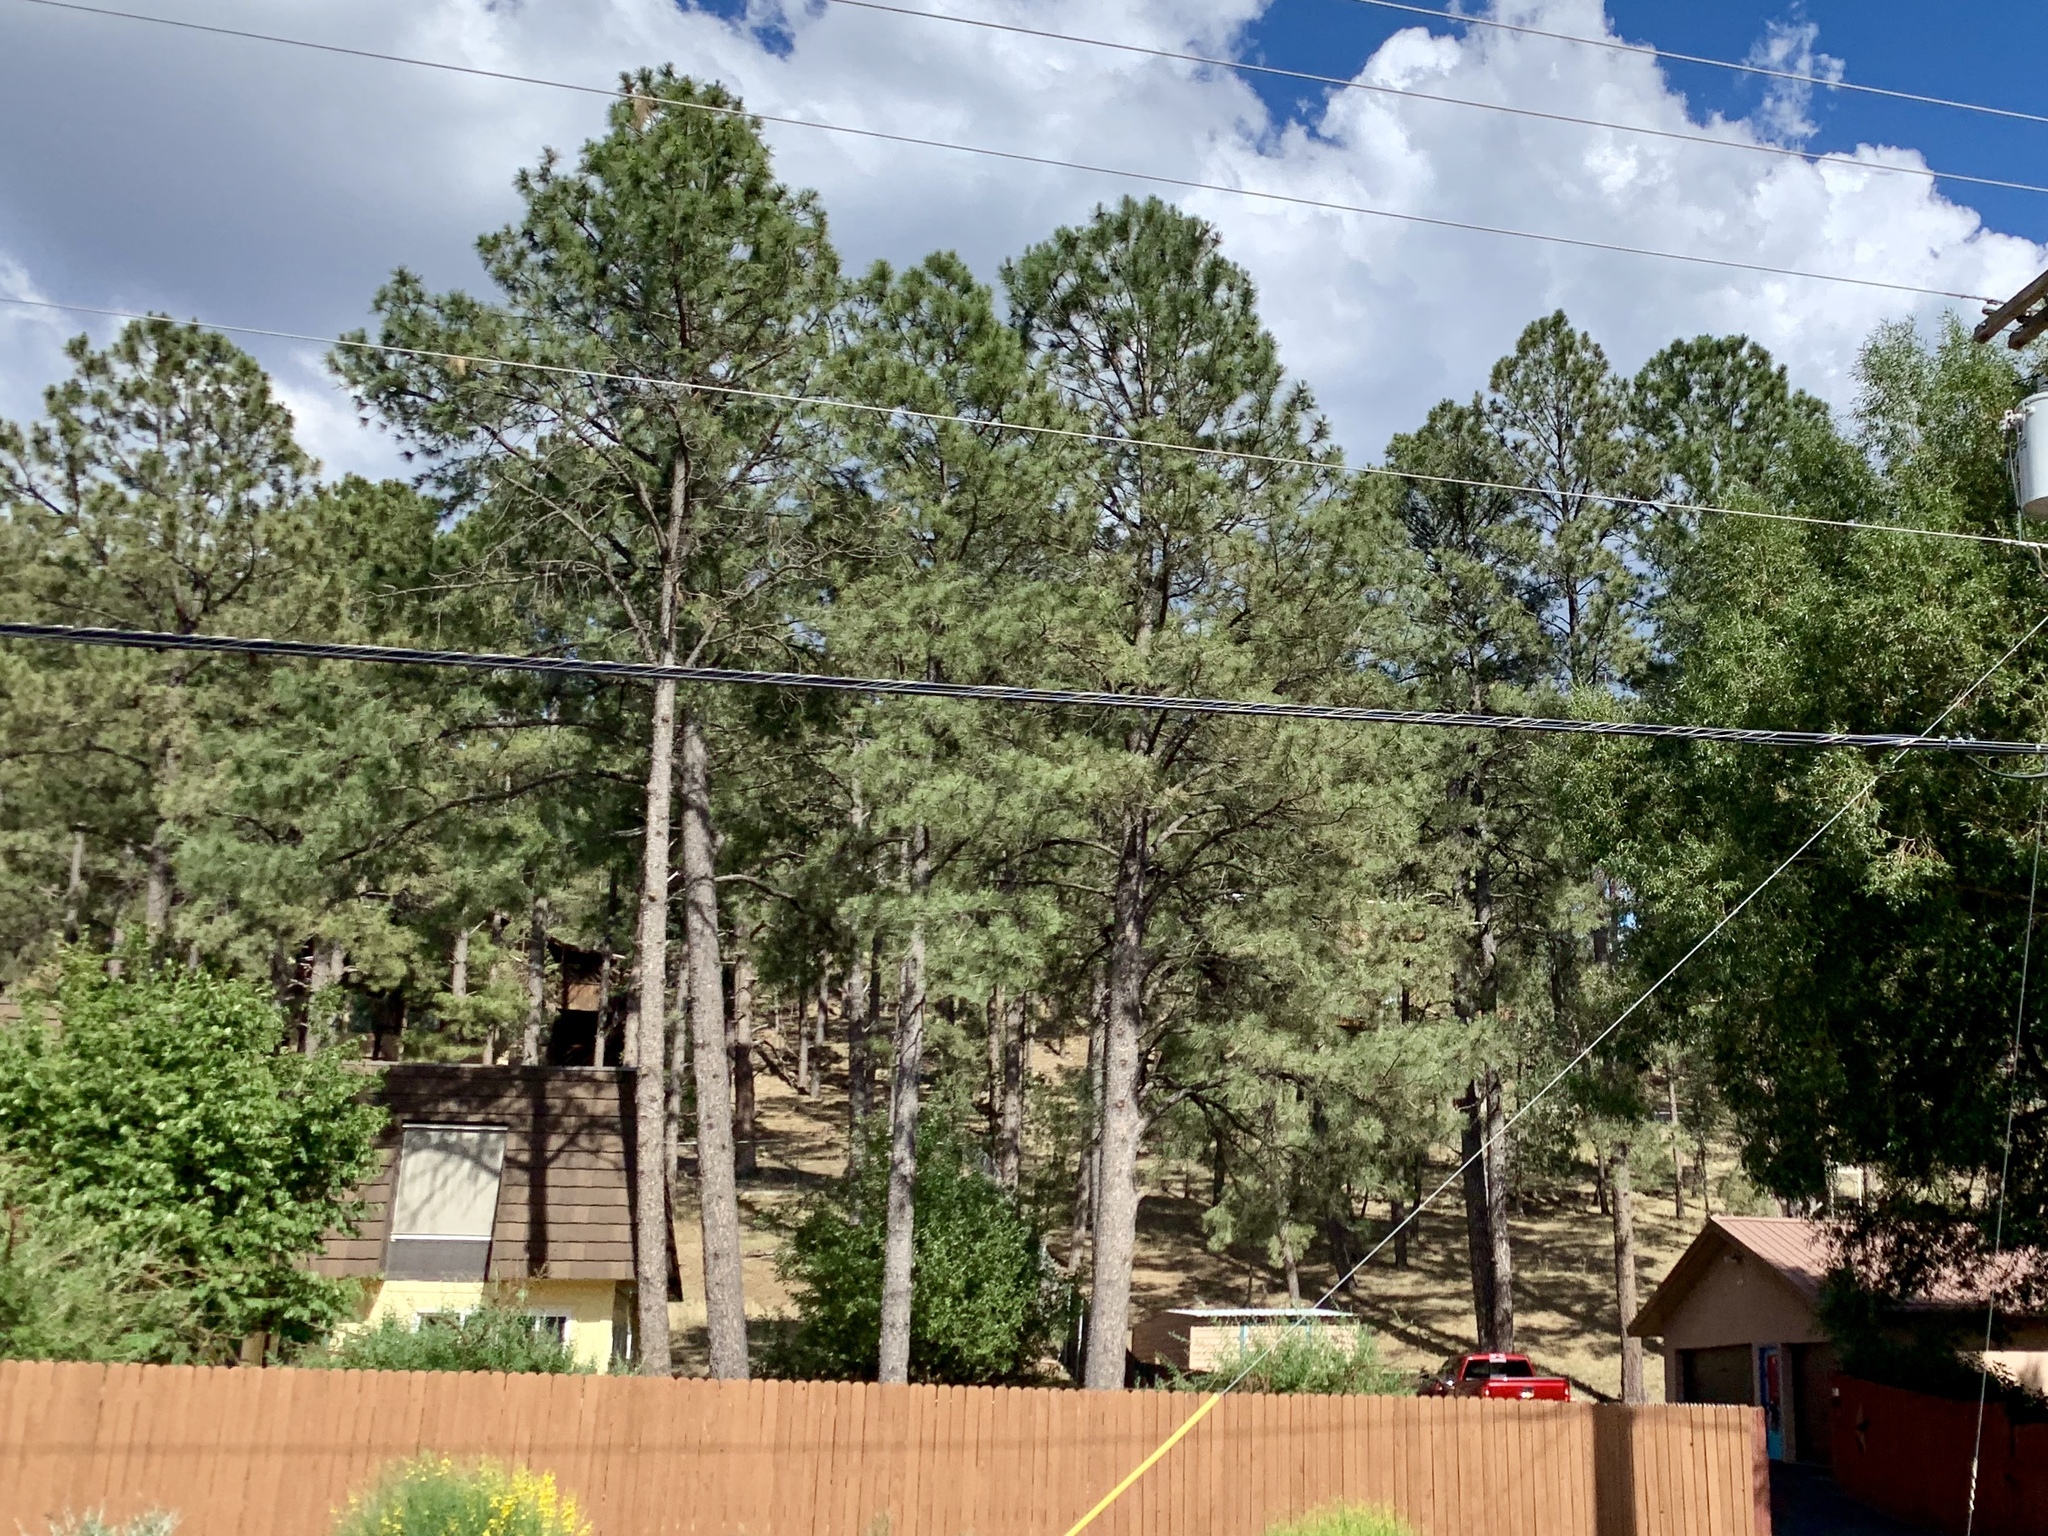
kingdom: Plantae
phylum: Tracheophyta
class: Pinopsida
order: Pinales
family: Pinaceae
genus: Pinus
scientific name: Pinus ponderosa
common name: Western yellow-pine
